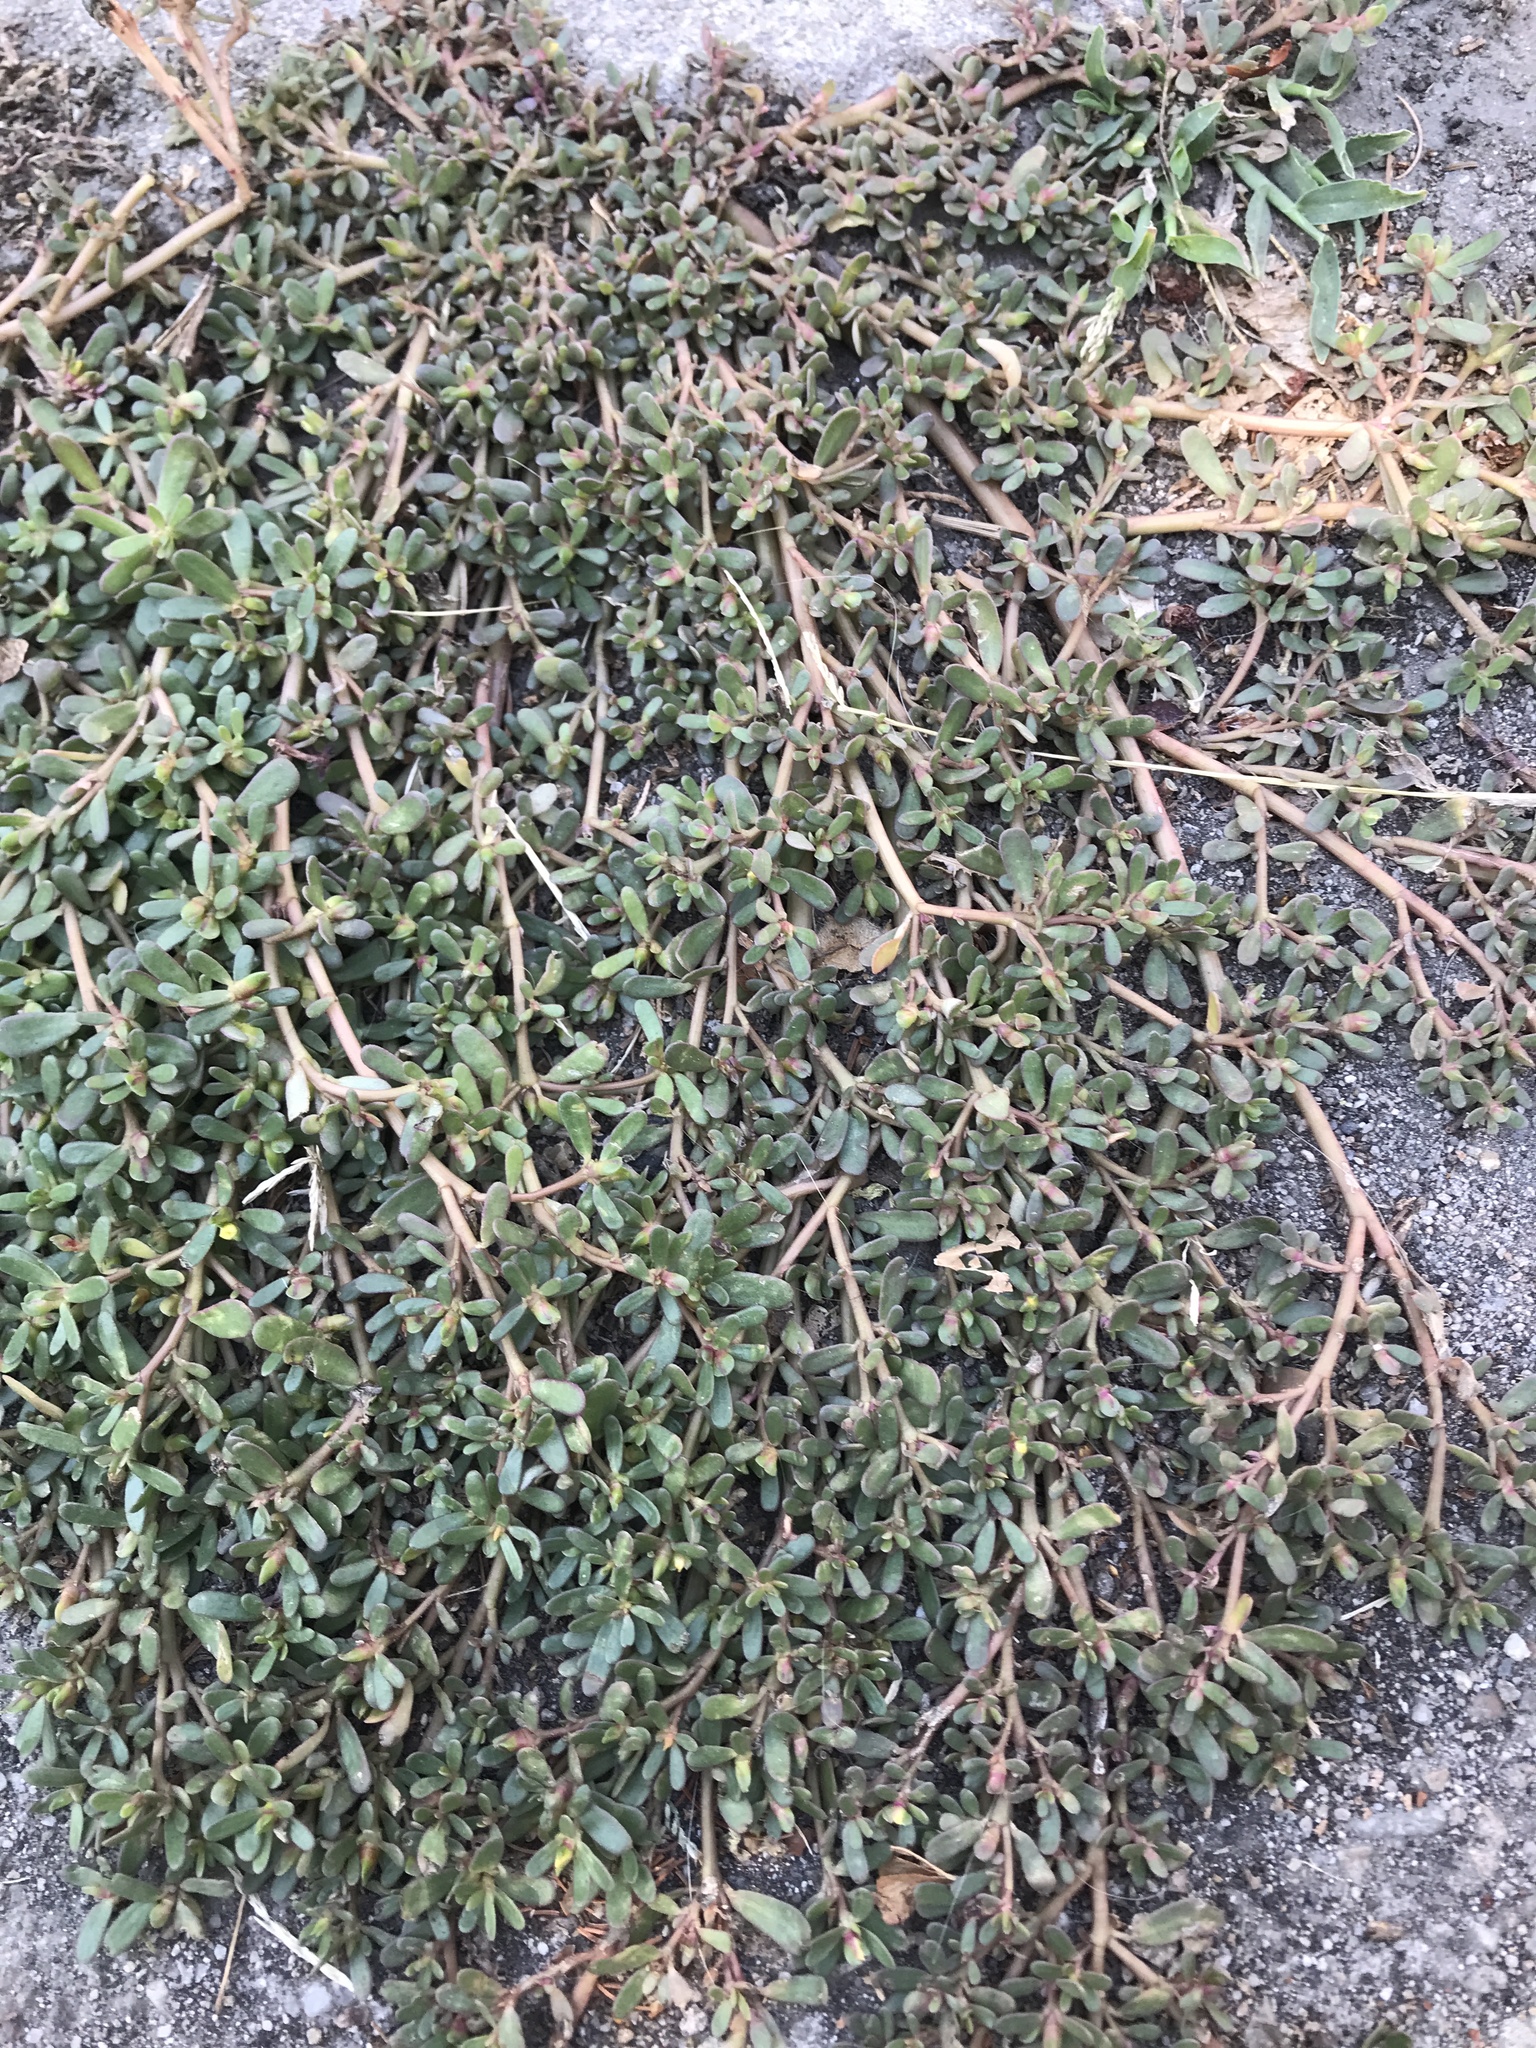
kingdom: Plantae
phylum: Tracheophyta
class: Magnoliopsida
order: Caryophyllales
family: Portulacaceae
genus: Portulaca
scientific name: Portulaca oleracea
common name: Common purslane
